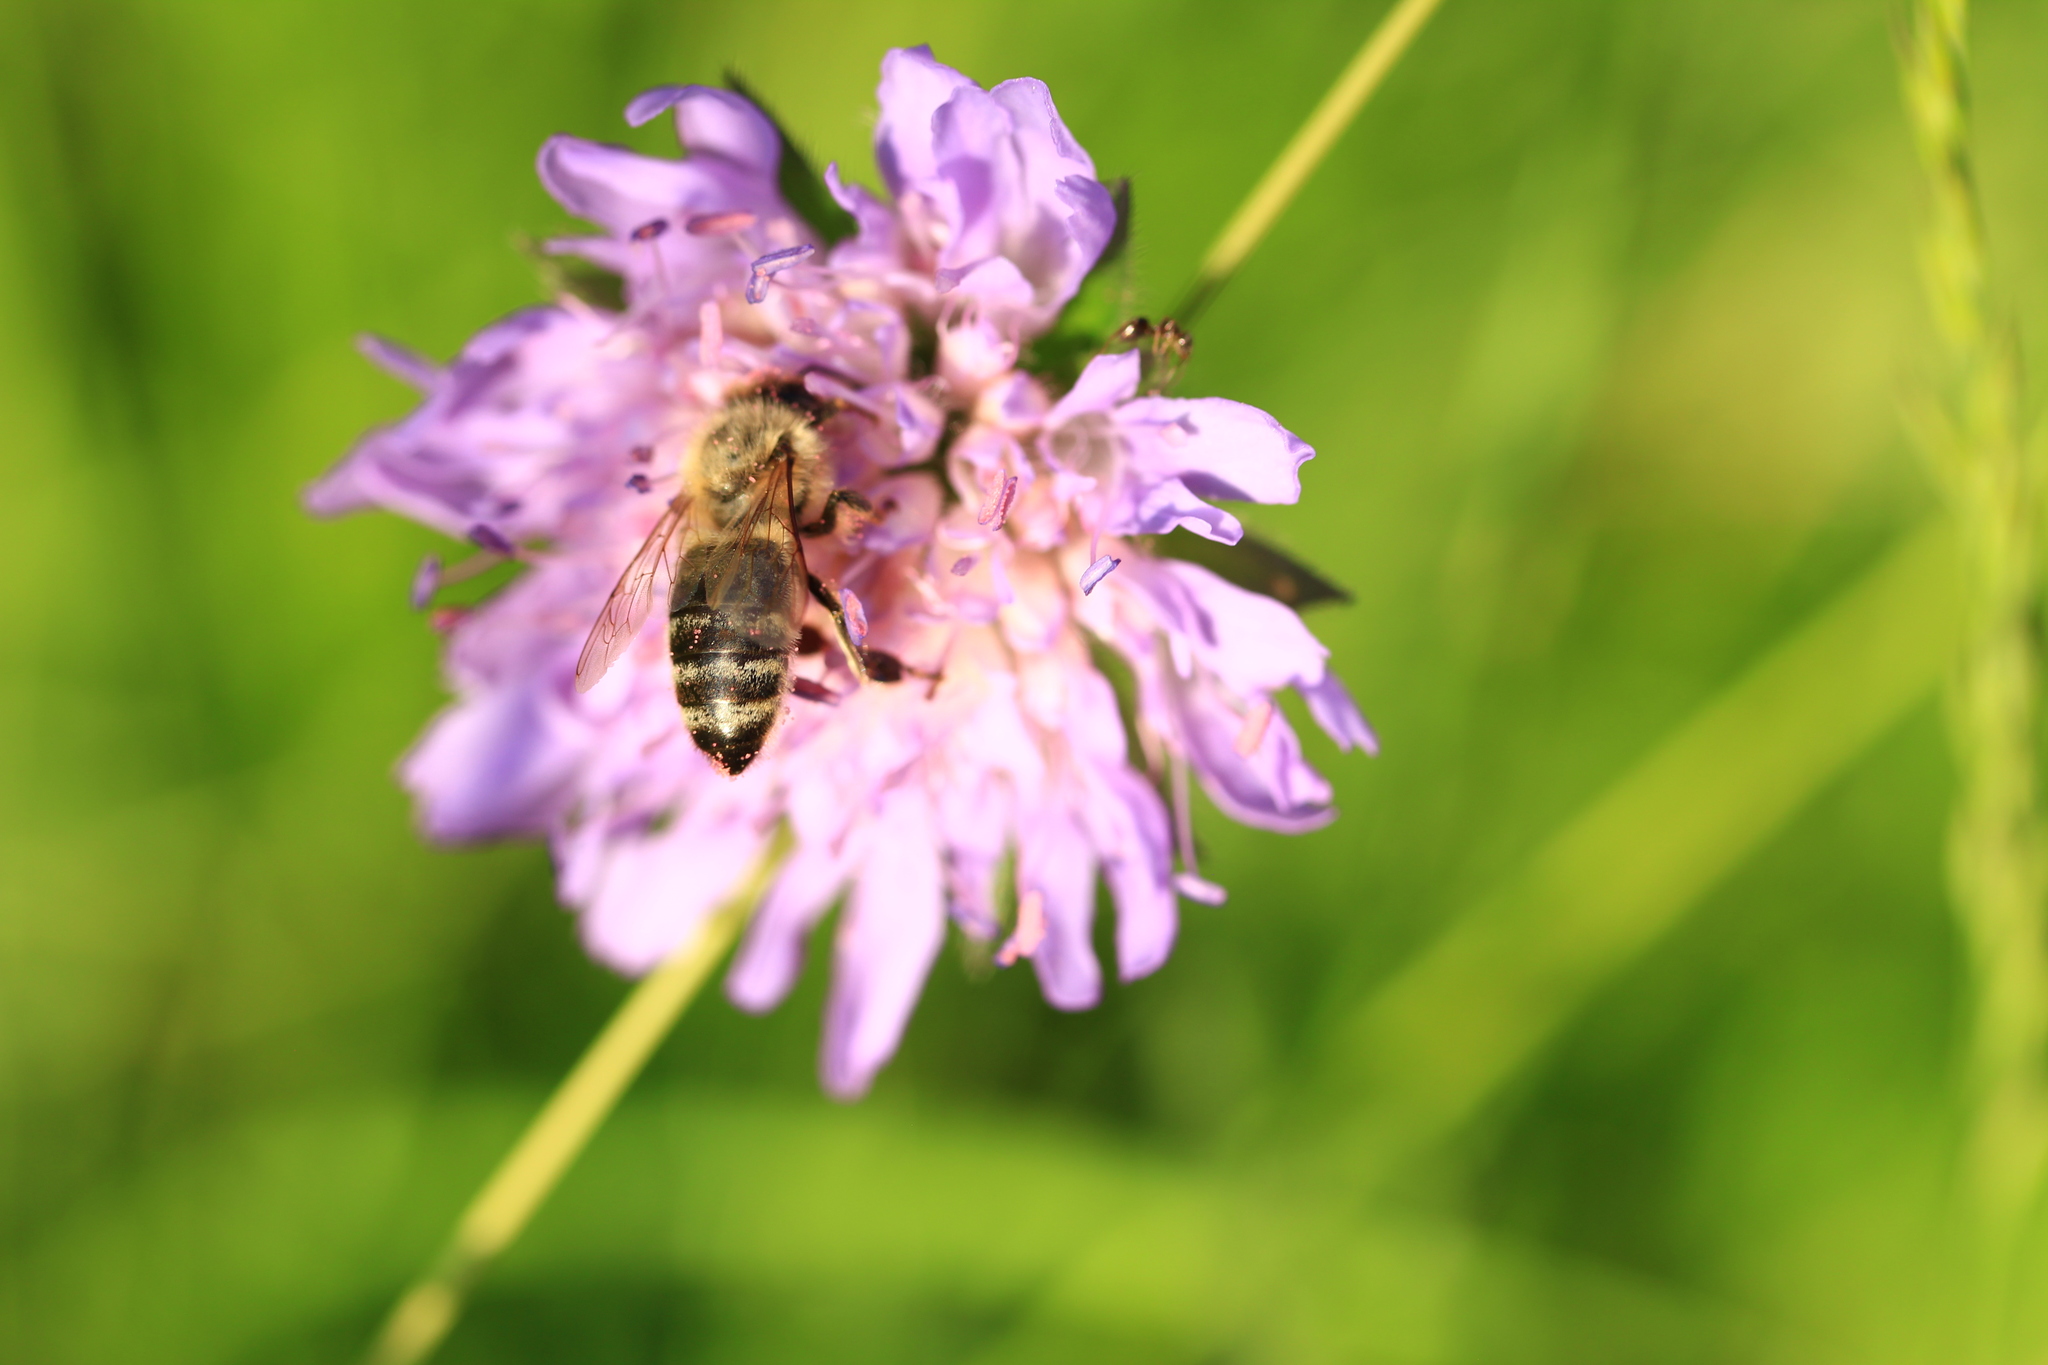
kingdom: Animalia
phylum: Arthropoda
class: Insecta
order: Hymenoptera
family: Apidae
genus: Apis
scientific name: Apis mellifera
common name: Honey bee
